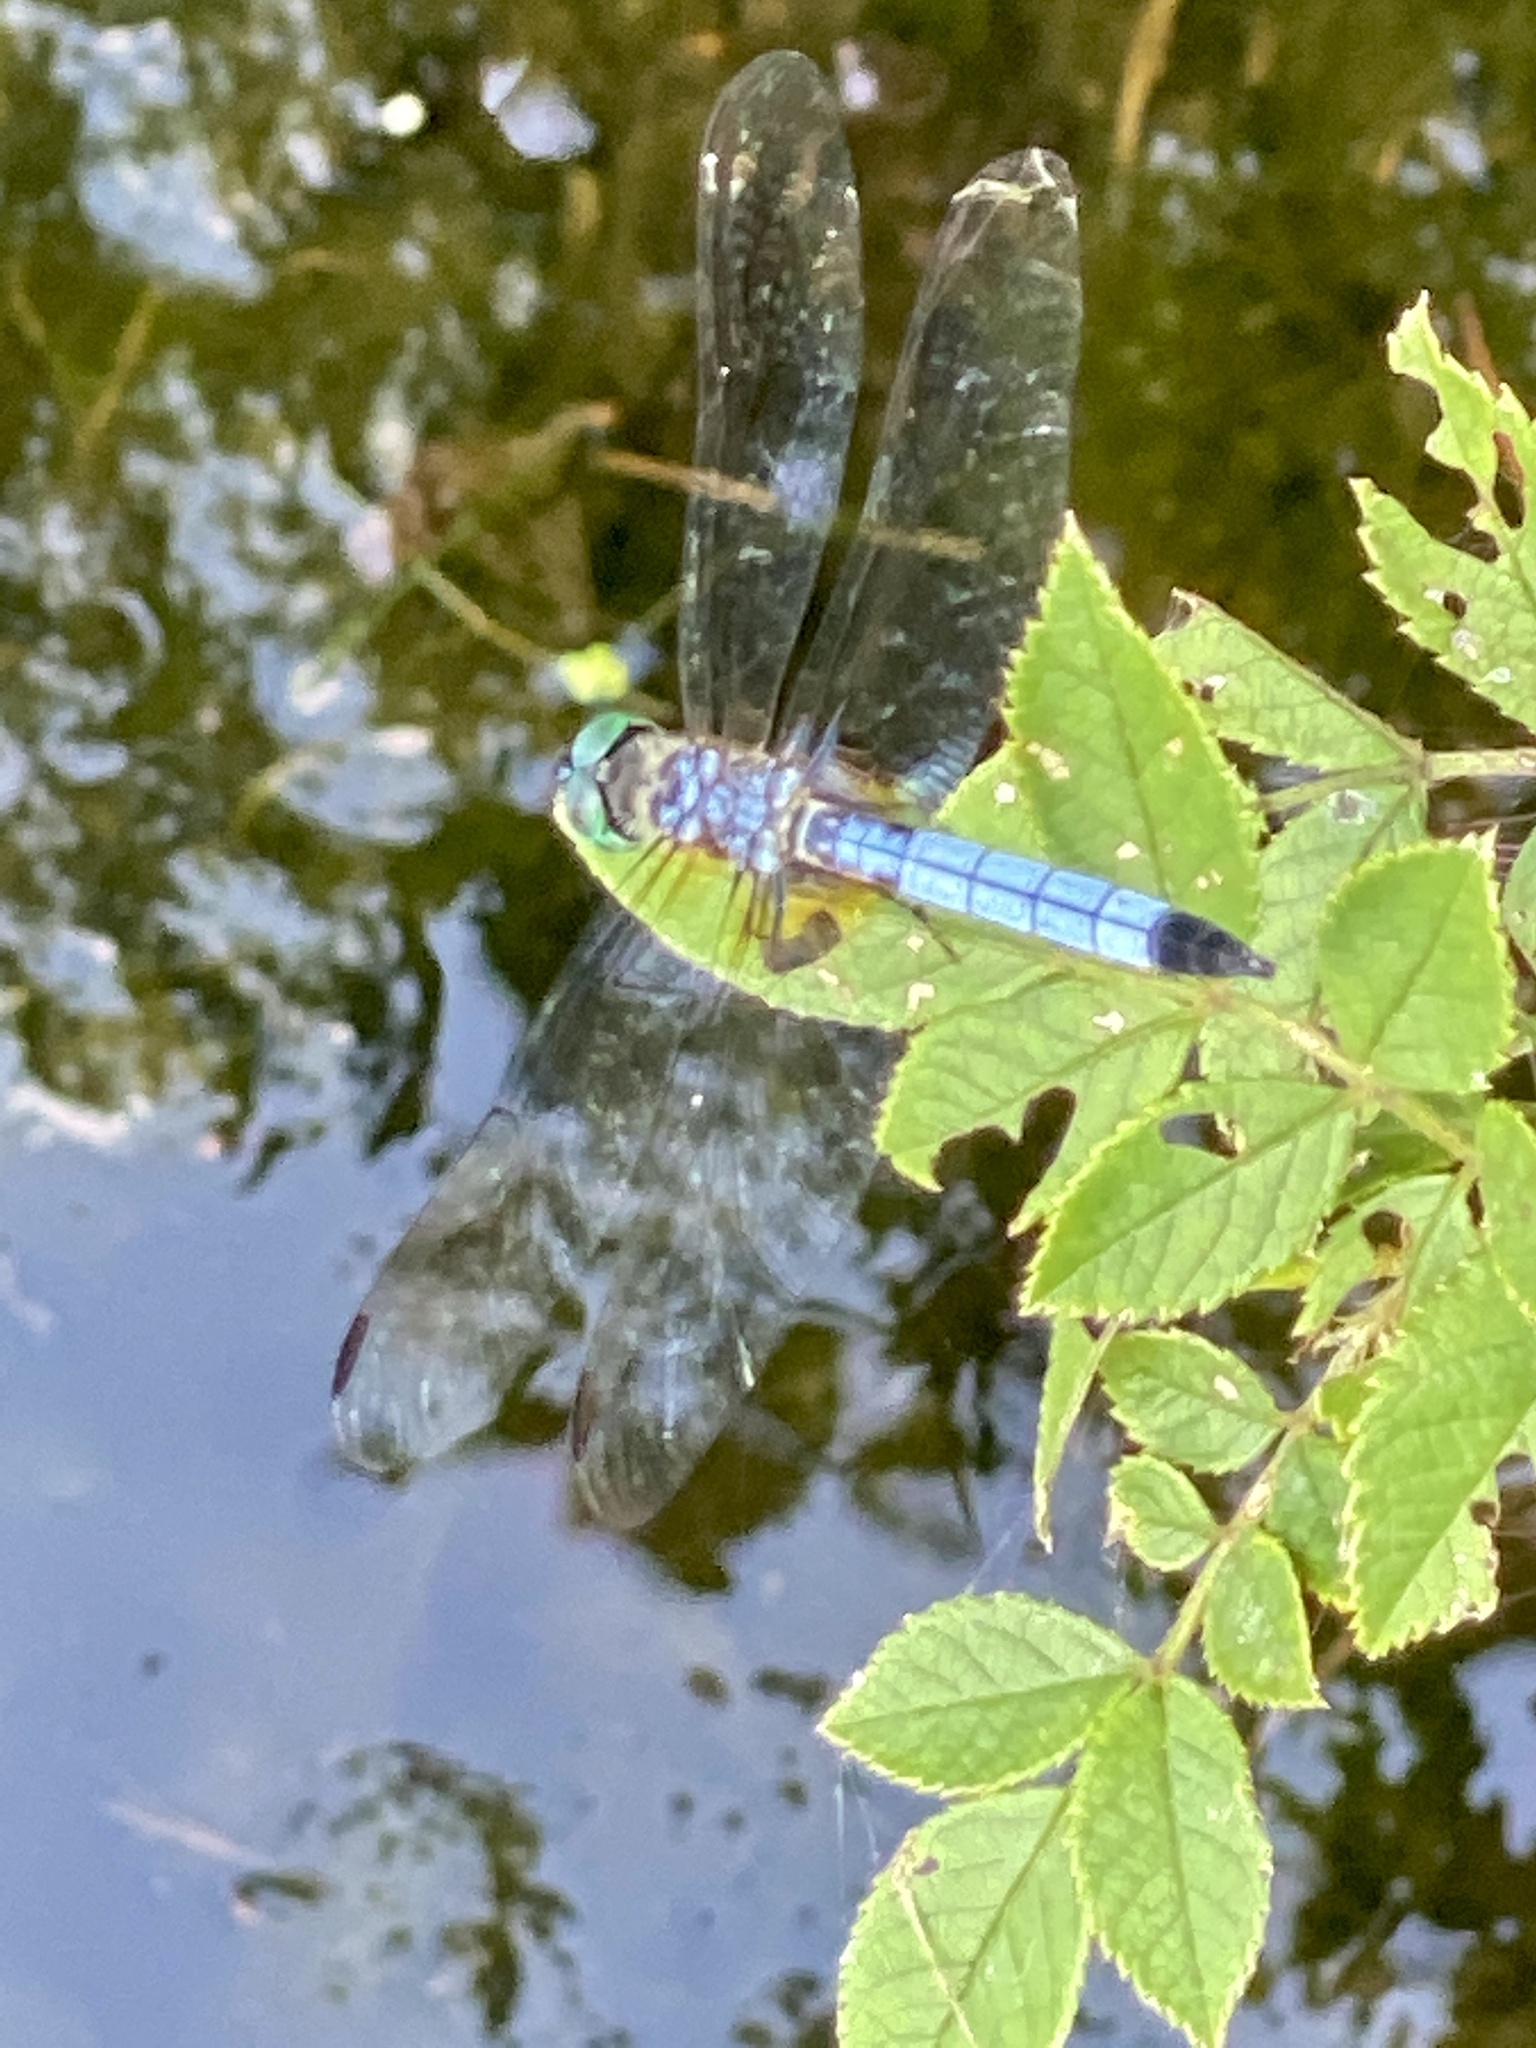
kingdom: Animalia
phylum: Arthropoda
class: Insecta
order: Odonata
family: Libellulidae
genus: Pachydiplax
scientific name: Pachydiplax longipennis
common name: Blue dasher
